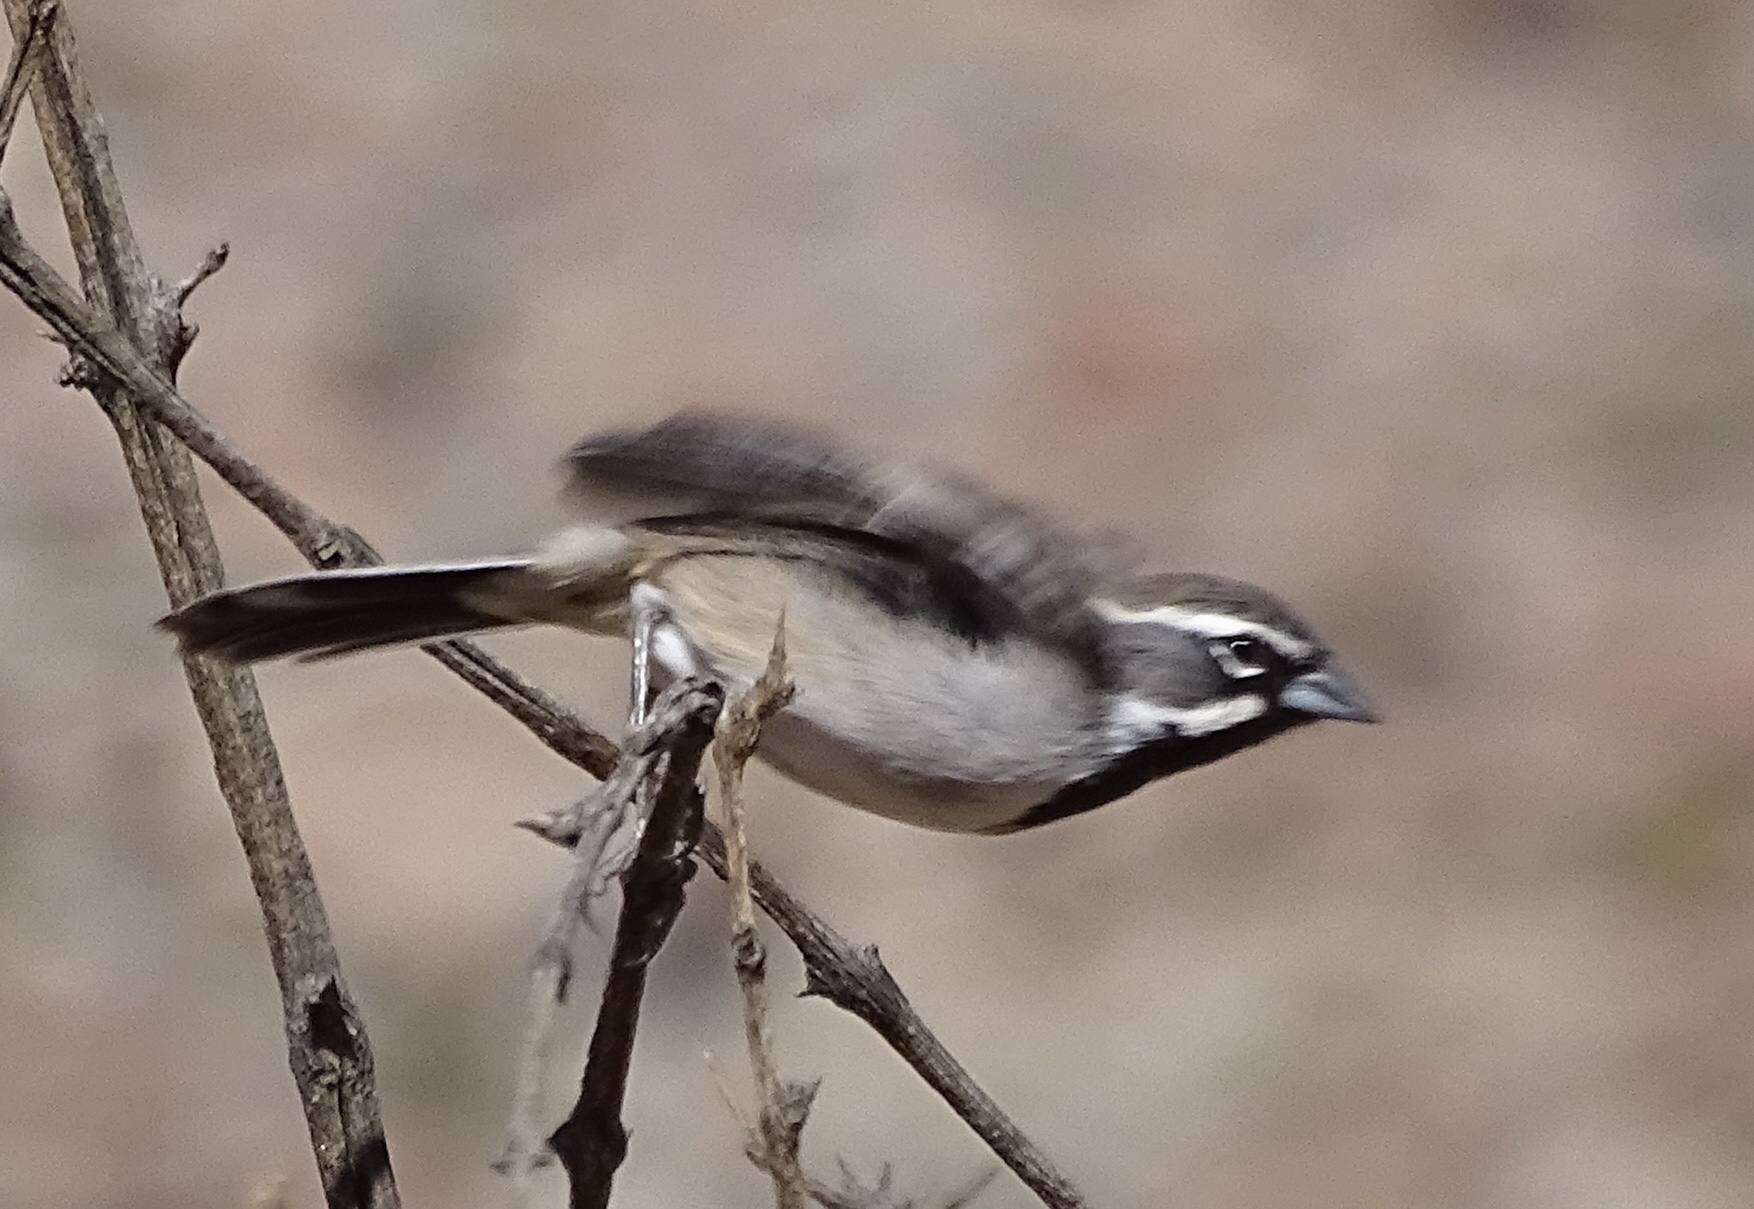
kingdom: Animalia
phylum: Chordata
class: Aves
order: Passeriformes
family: Passerellidae
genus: Amphispiza
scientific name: Amphispiza bilineata
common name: Black-throated sparrow
